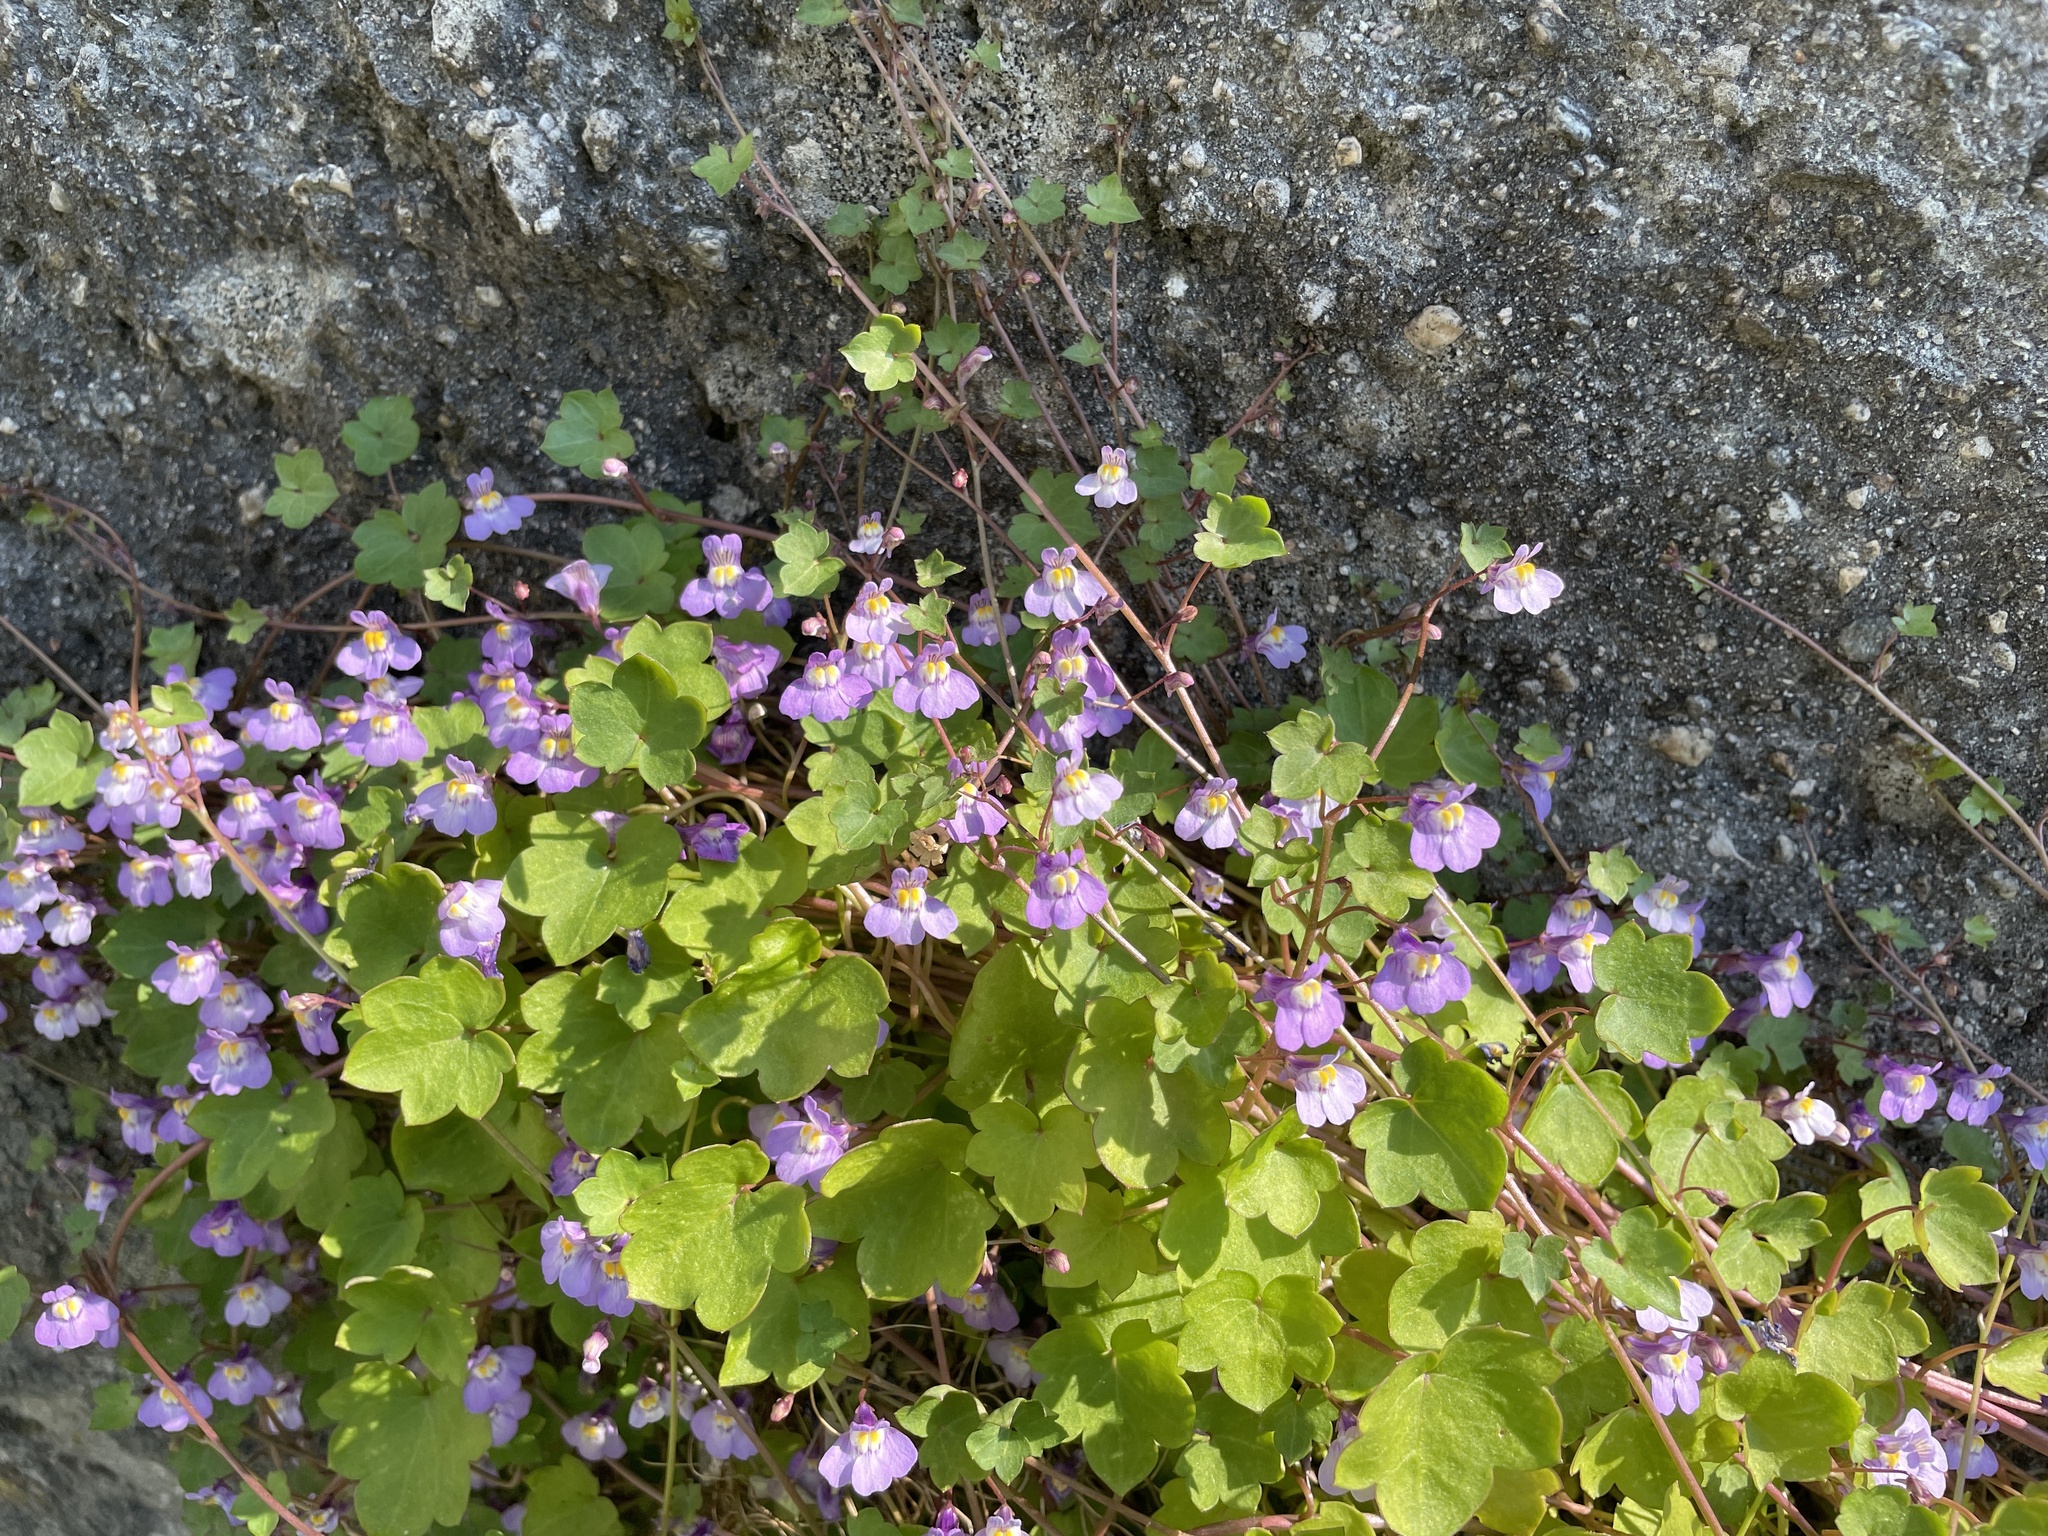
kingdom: Plantae
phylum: Tracheophyta
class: Magnoliopsida
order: Lamiales
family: Plantaginaceae
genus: Cymbalaria
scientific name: Cymbalaria muralis
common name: Ivy-leaved toadflax
